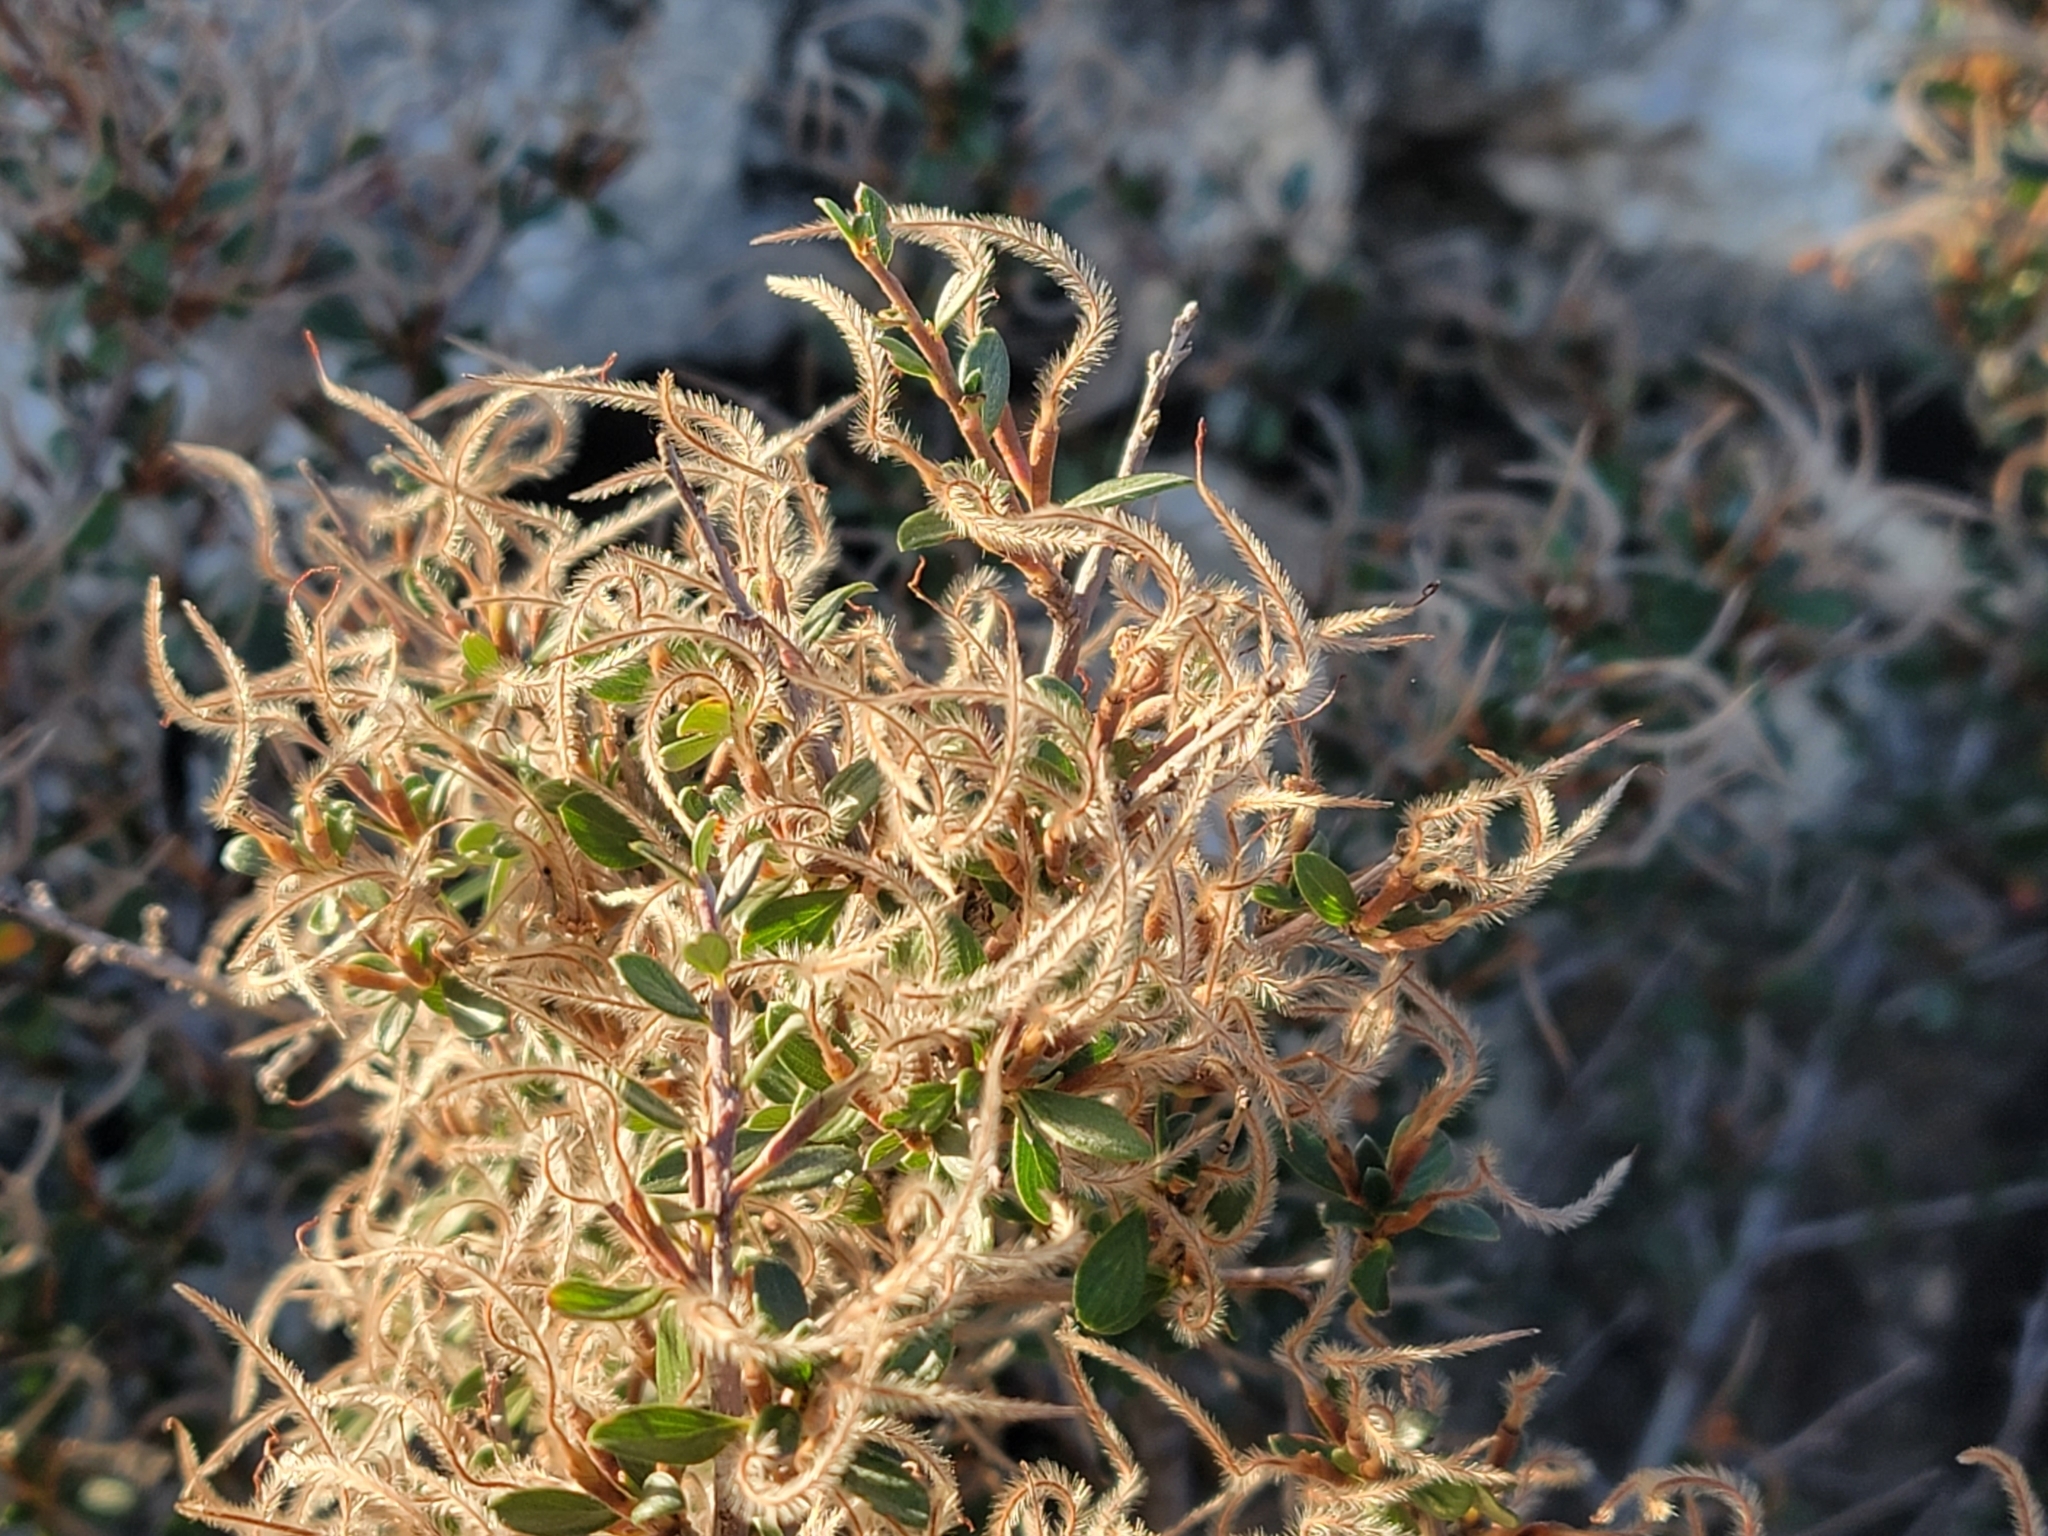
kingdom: Plantae
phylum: Tracheophyta
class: Magnoliopsida
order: Rosales
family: Rosaceae
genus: Cercocarpus
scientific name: Cercocarpus breviflorus
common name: Wright's mountain-mahogany
